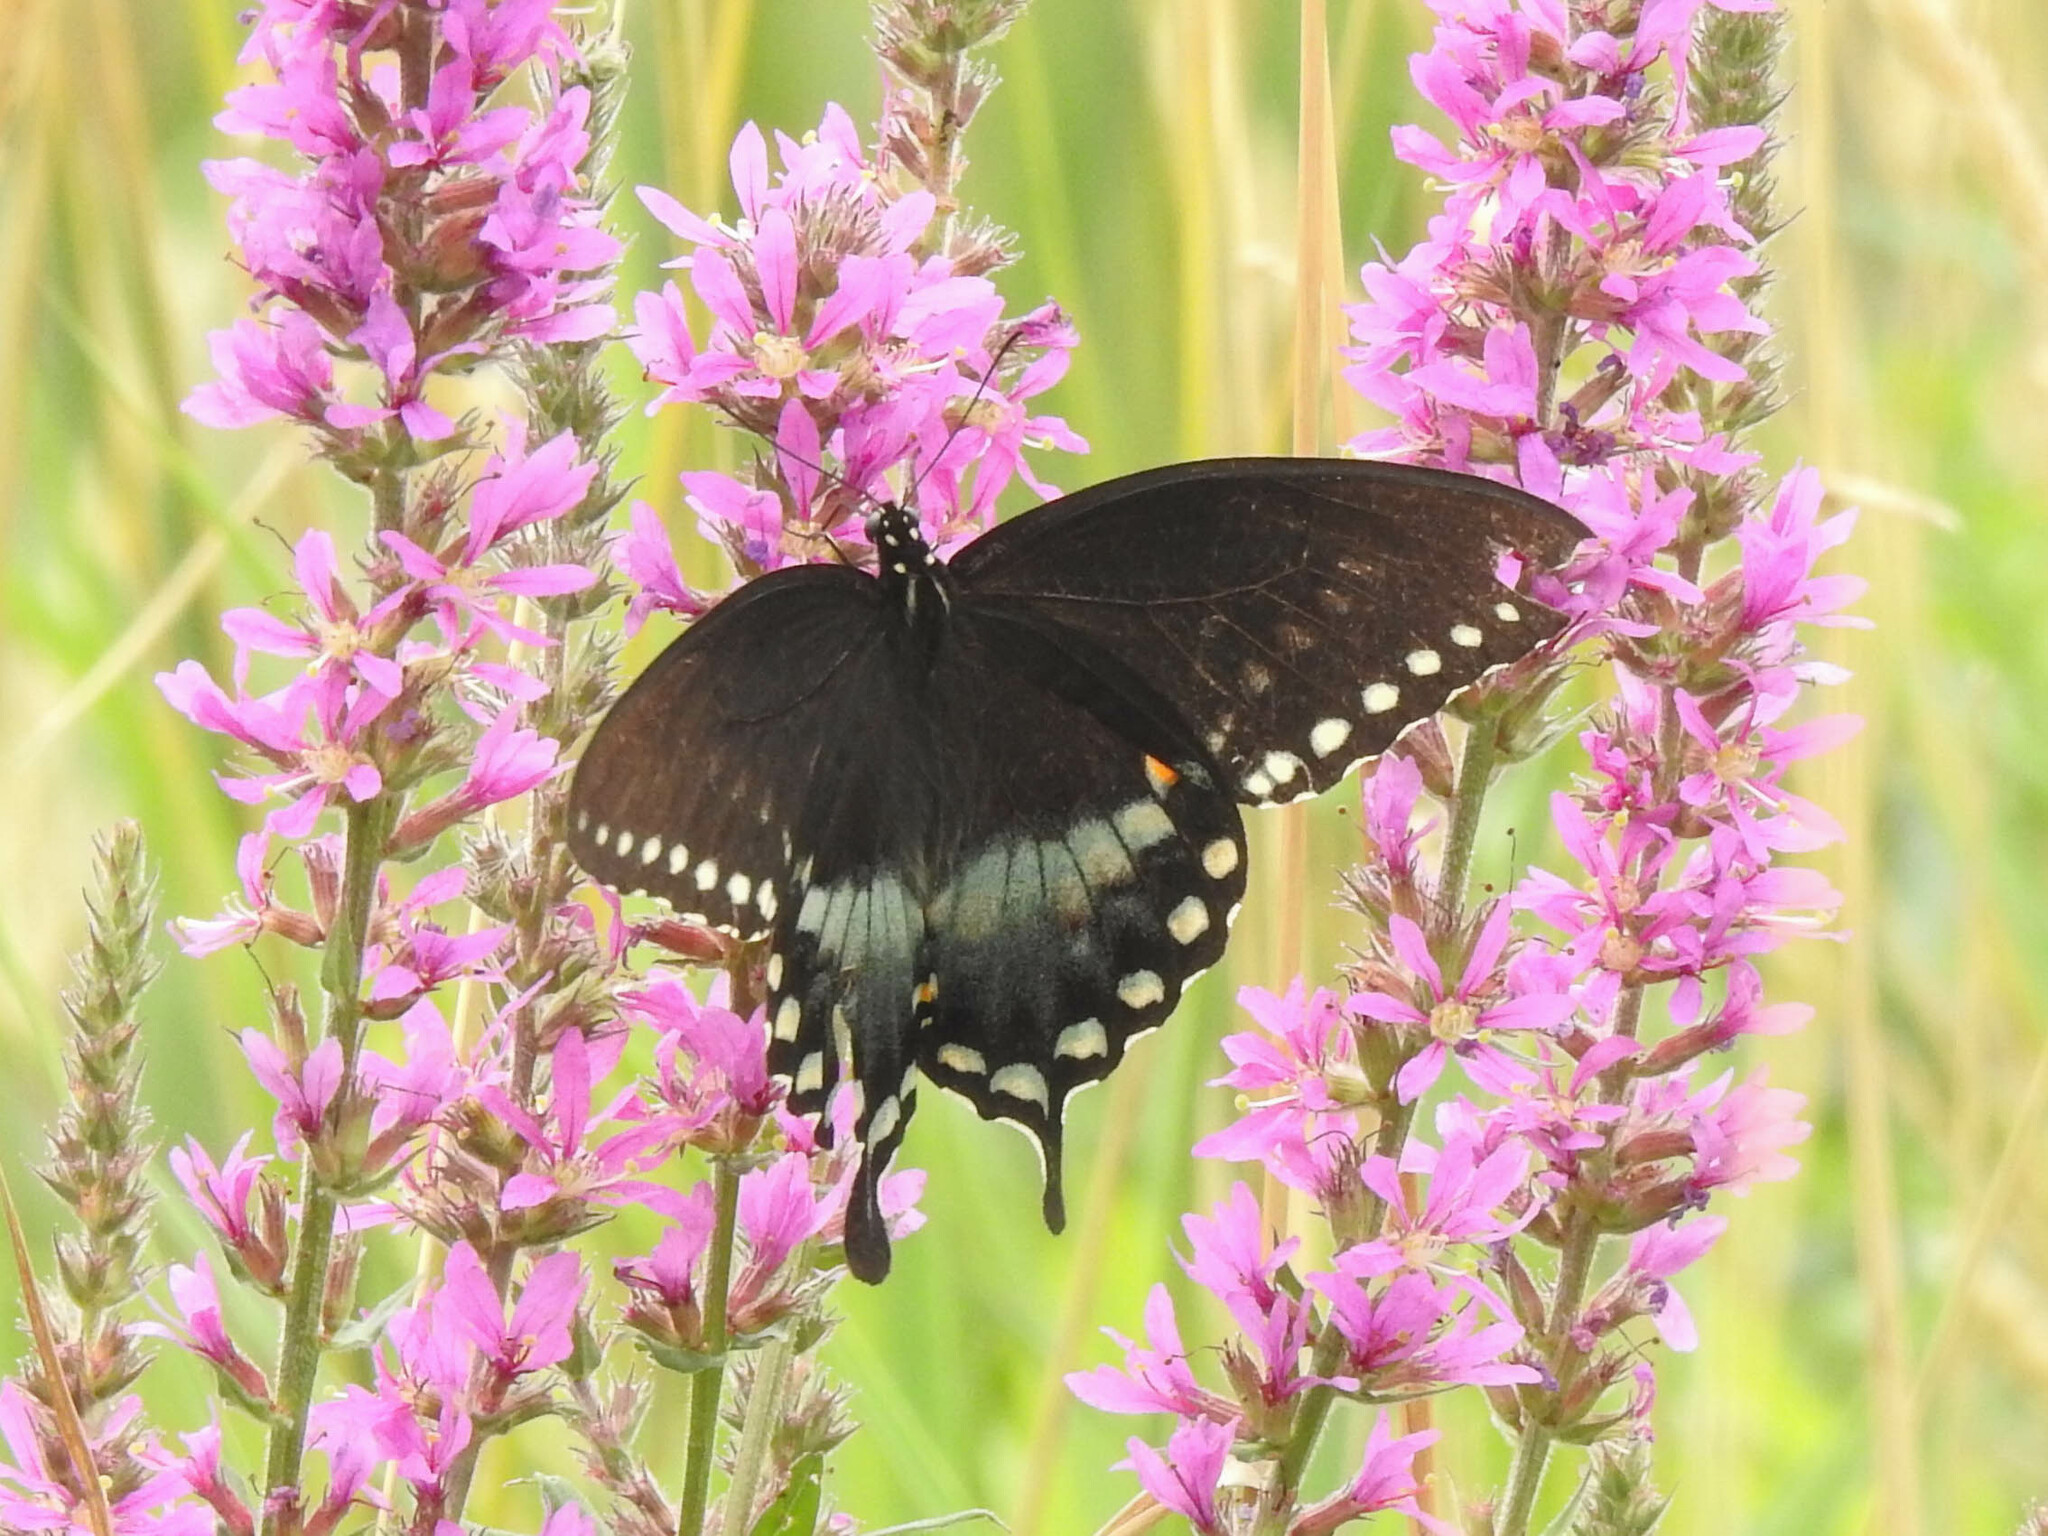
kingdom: Animalia
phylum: Arthropoda
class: Insecta
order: Lepidoptera
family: Papilionidae
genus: Papilio
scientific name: Papilio troilus
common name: Spicebush swallowtail
